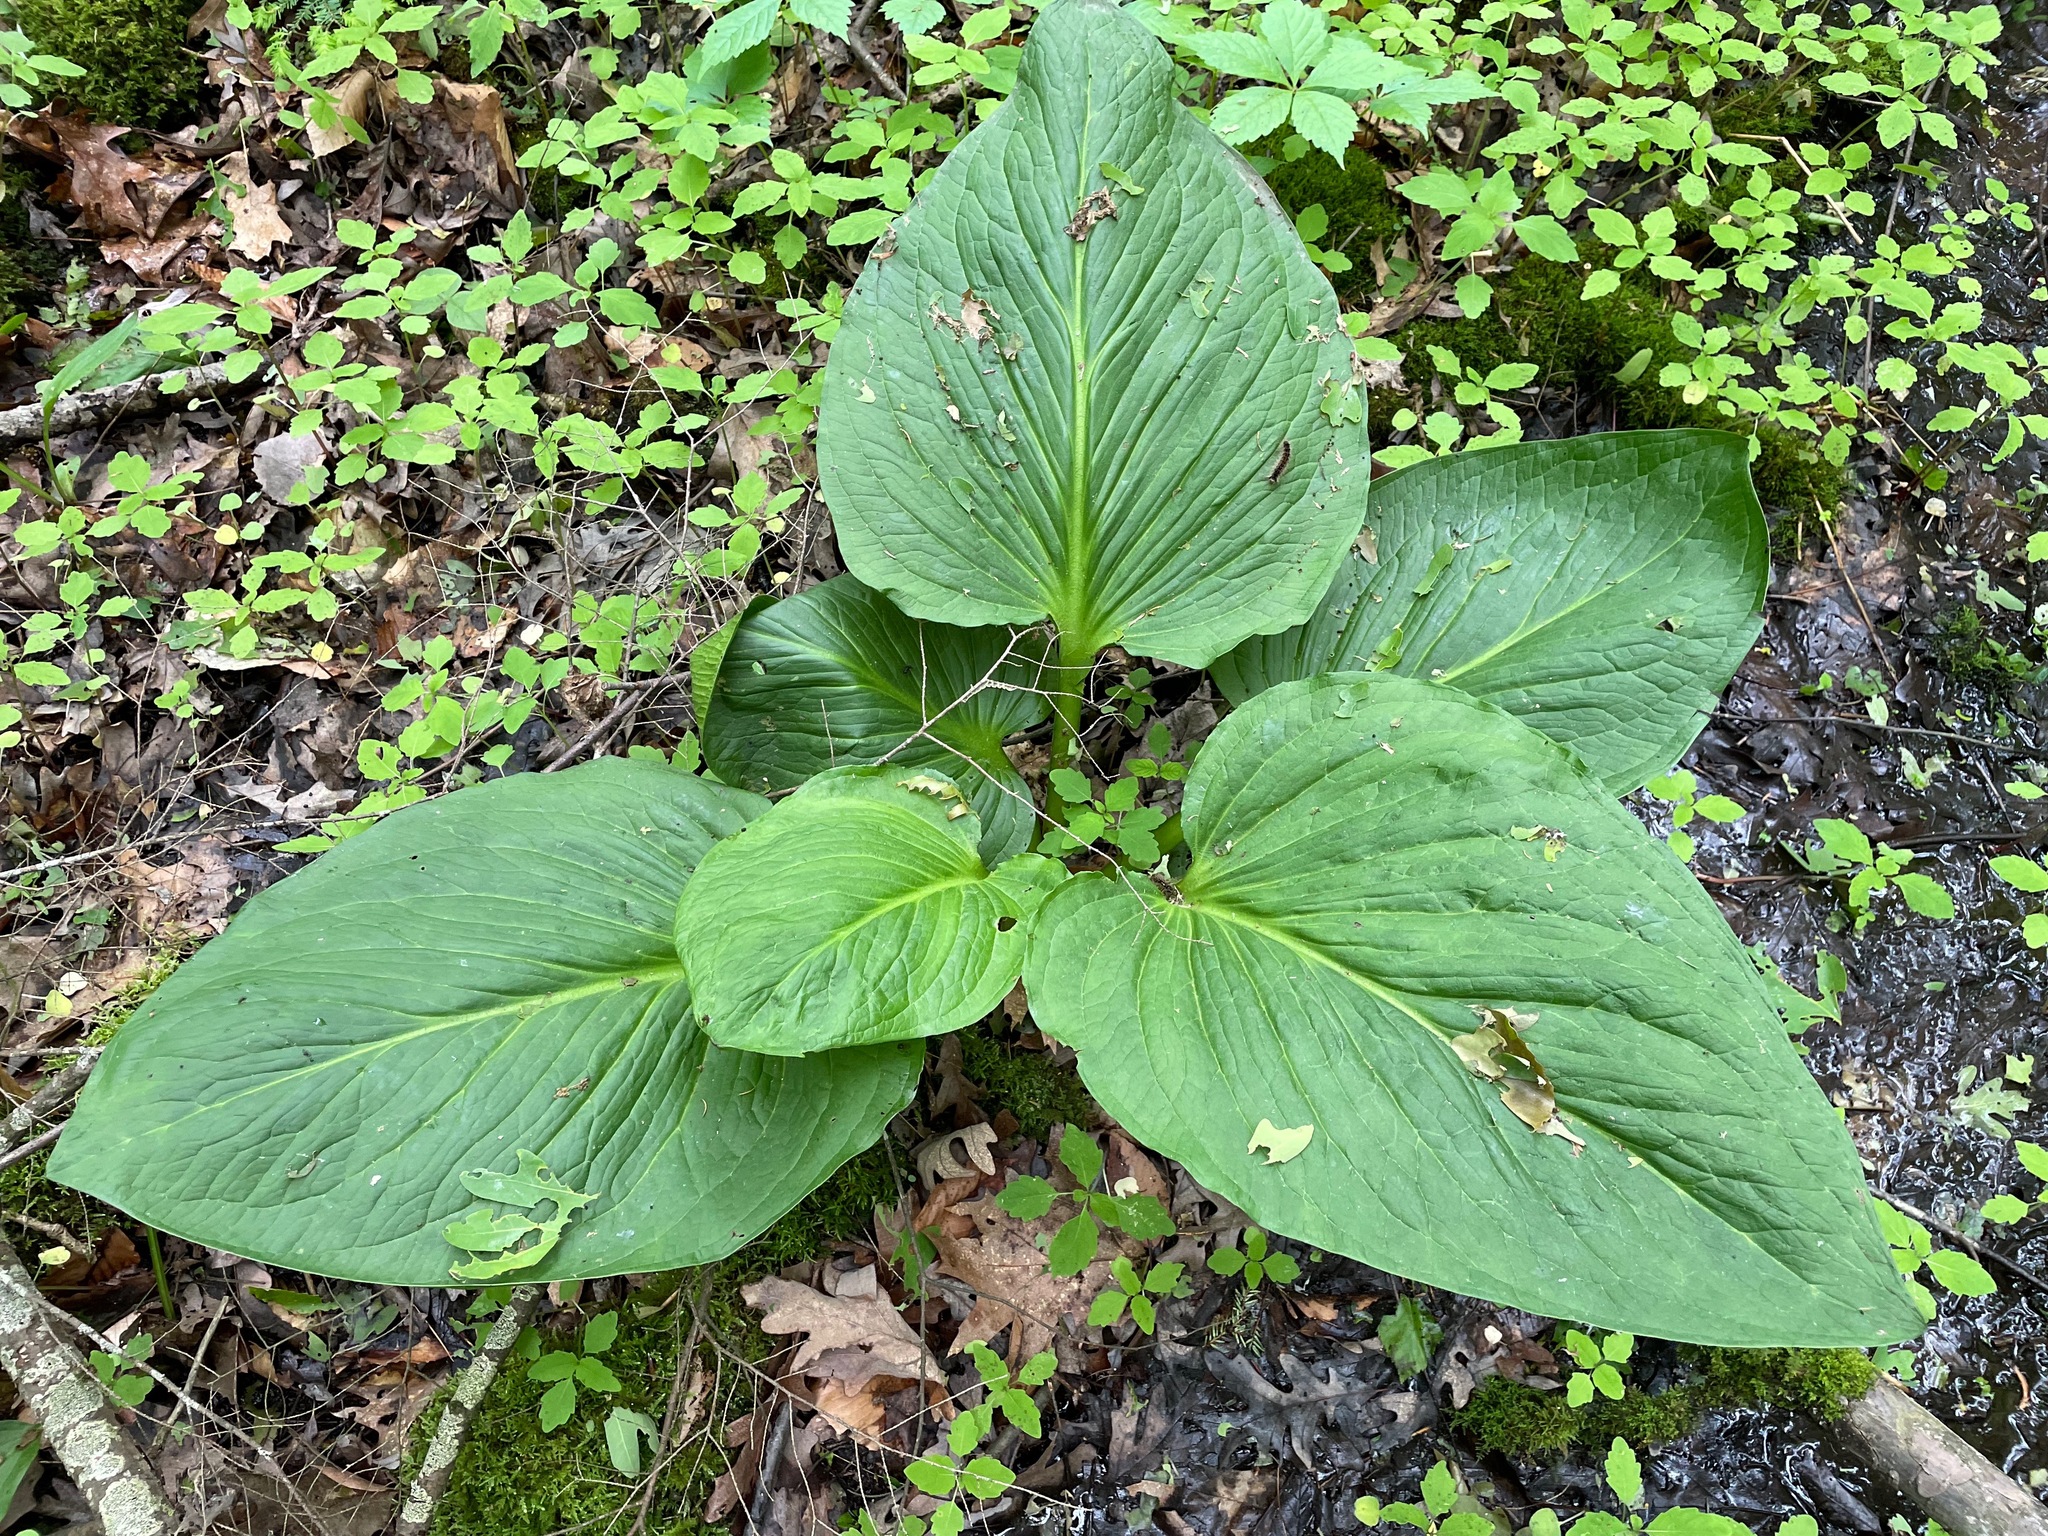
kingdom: Plantae
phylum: Tracheophyta
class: Liliopsida
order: Alismatales
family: Araceae
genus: Symplocarpus
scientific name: Symplocarpus foetidus
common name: Eastern skunk cabbage
